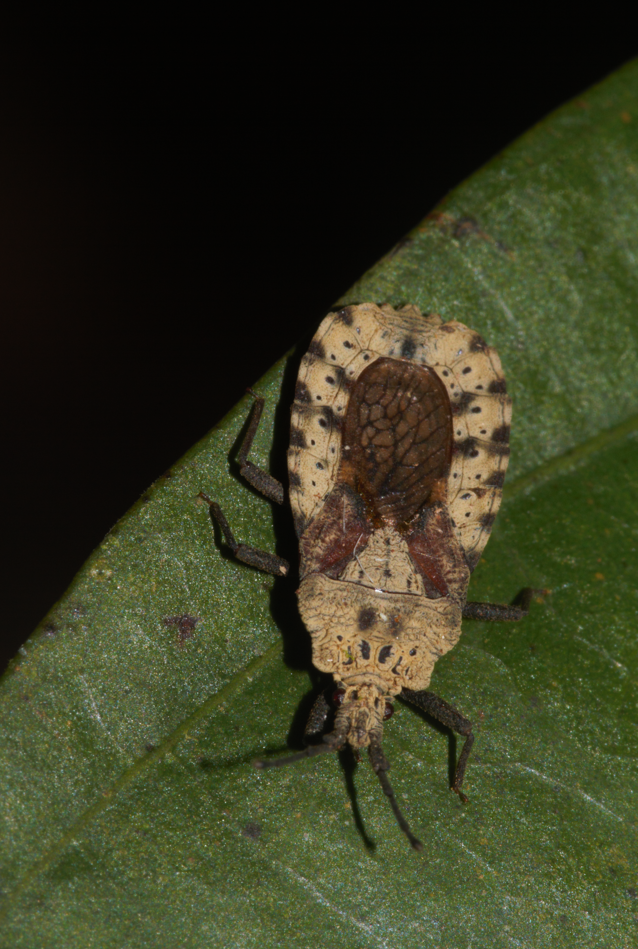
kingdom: Animalia
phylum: Arthropoda
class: Insecta
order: Hemiptera
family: Aradidae
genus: Mezira
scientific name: Mezira handlirschi
